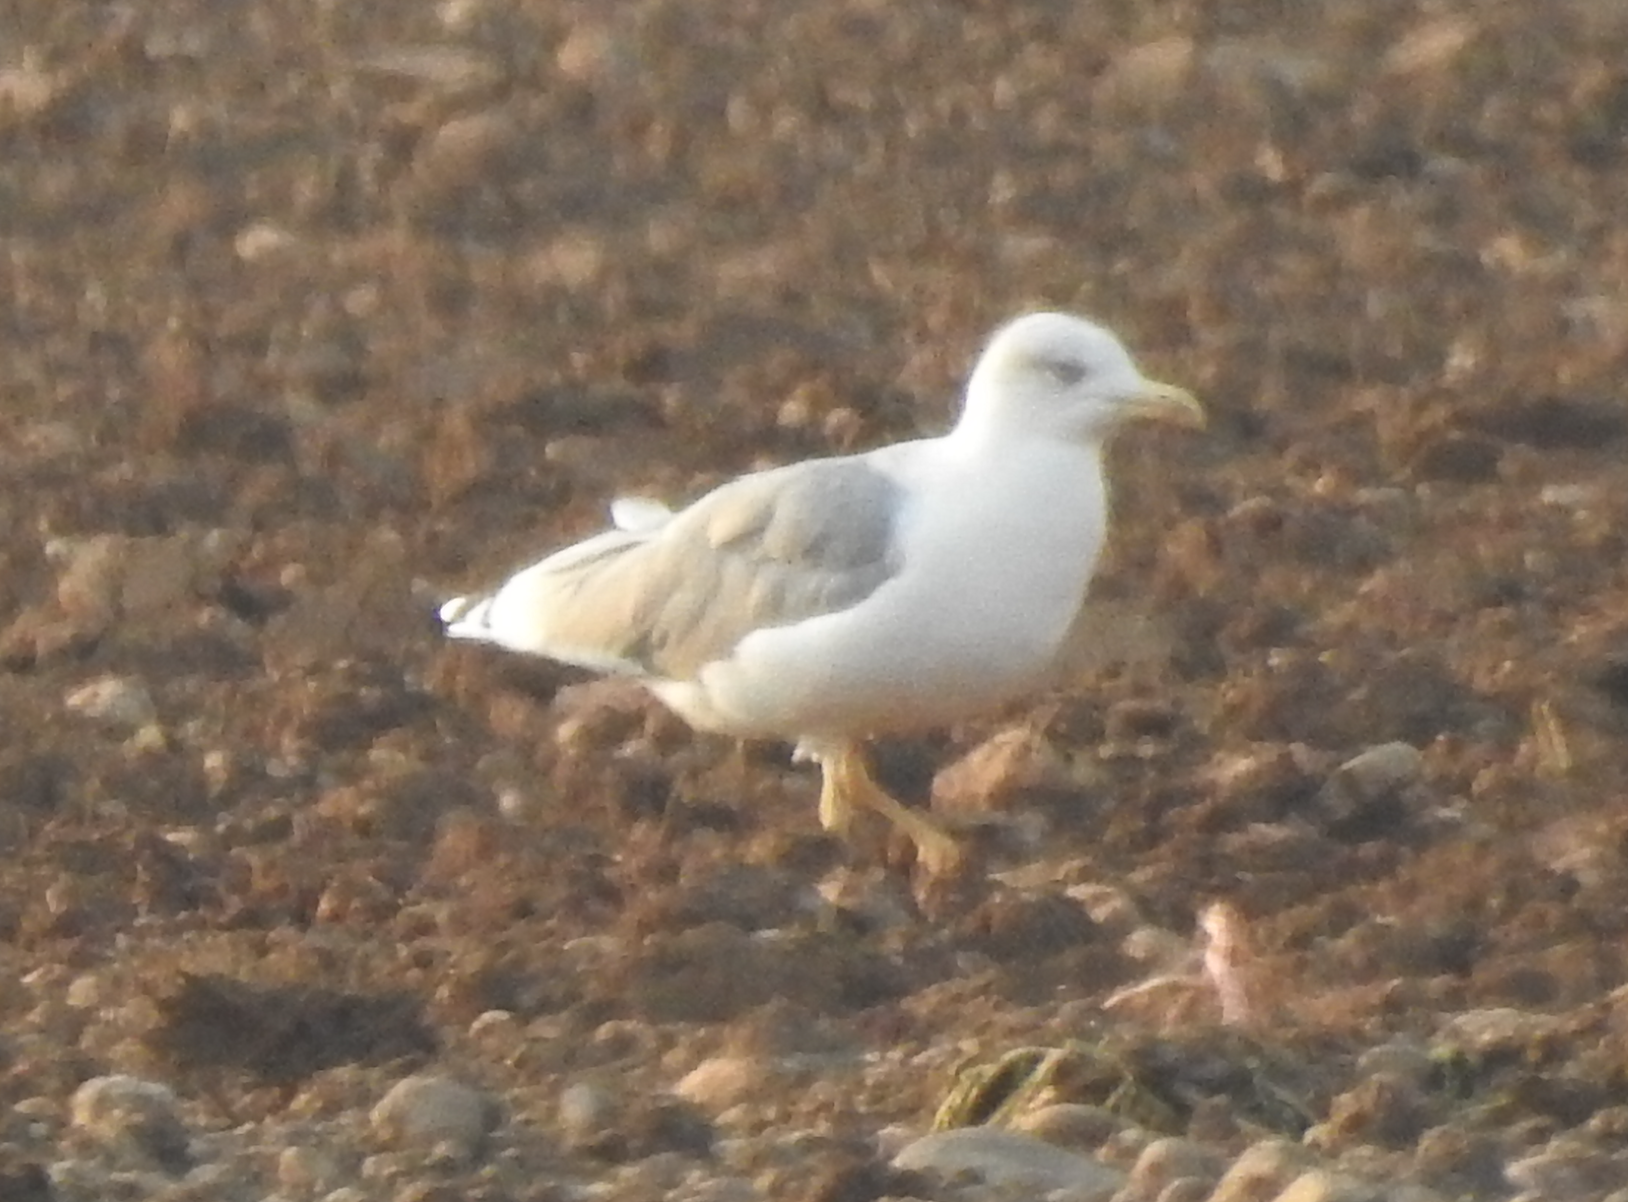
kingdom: Animalia
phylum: Chordata
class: Aves
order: Charadriiformes
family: Laridae
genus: Larus
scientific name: Larus michahellis
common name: Yellow-legged gull
